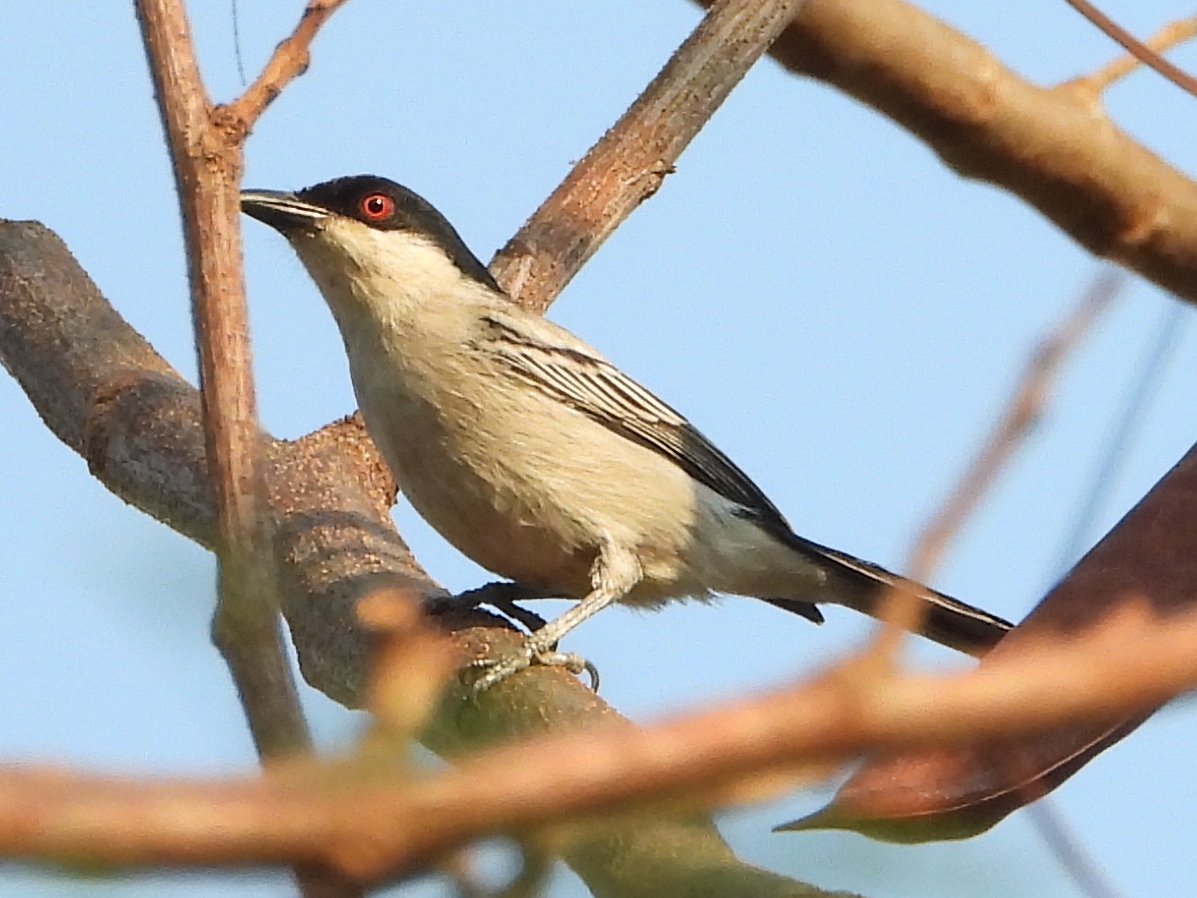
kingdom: Animalia
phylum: Chordata
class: Aves
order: Passeriformes
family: Malaconotidae
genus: Dryoscopus
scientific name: Dryoscopus cubla
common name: Black-backed puffback
